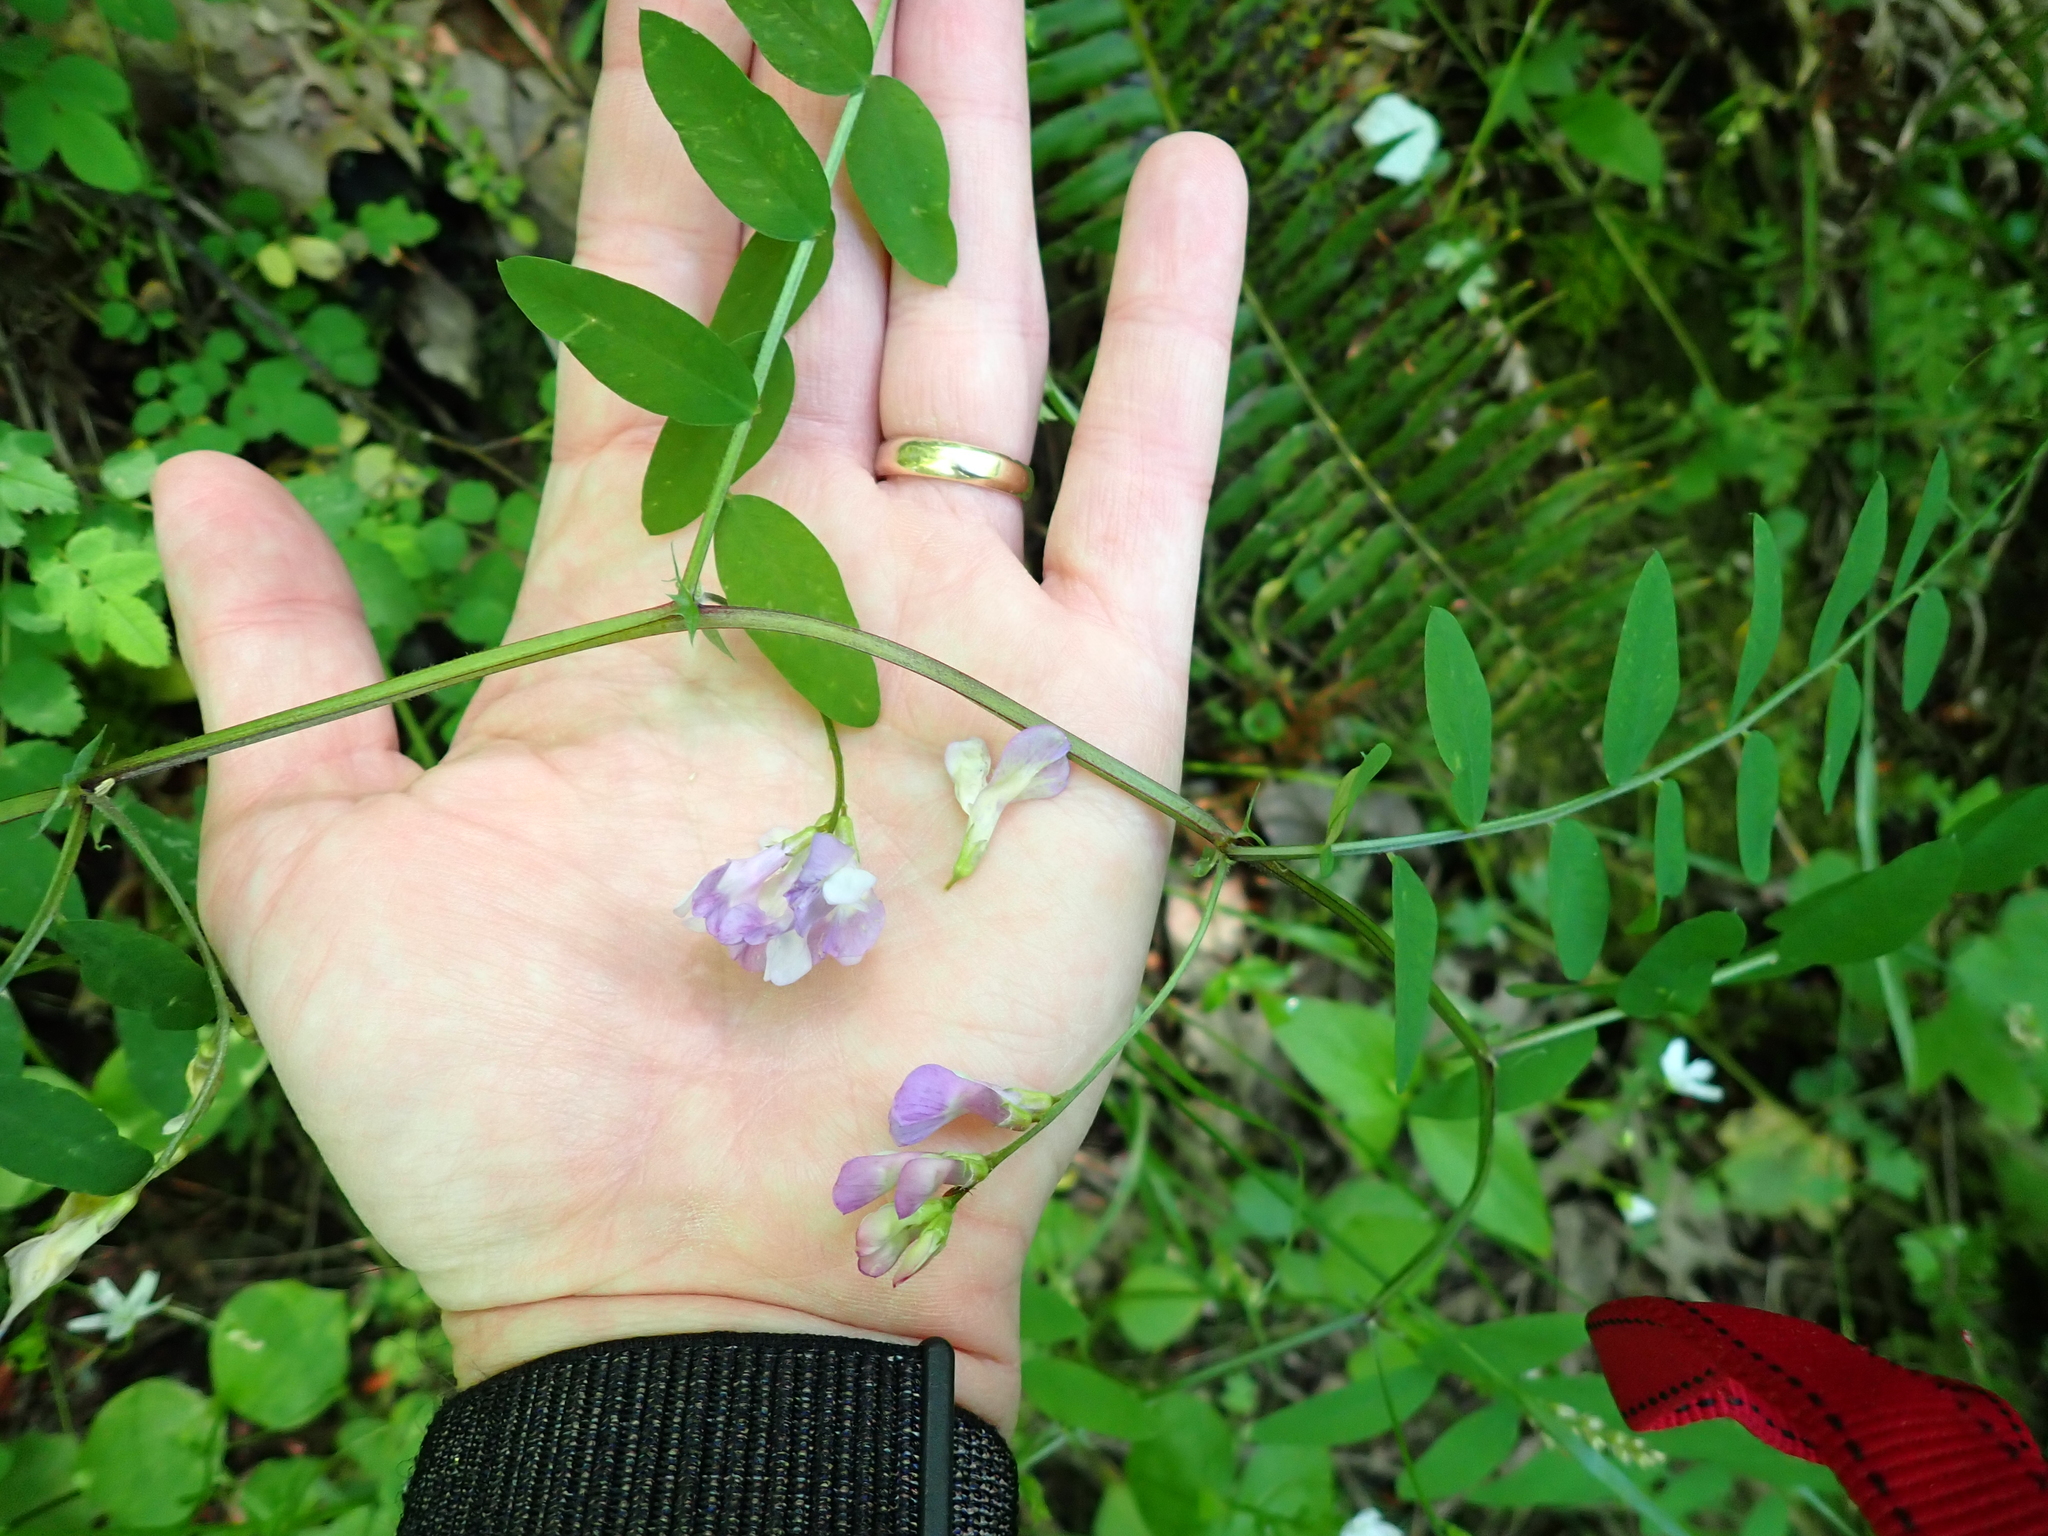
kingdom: Plantae
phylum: Tracheophyta
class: Magnoliopsida
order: Fabales
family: Fabaceae
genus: Vicia
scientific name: Vicia americana
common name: American vetch
